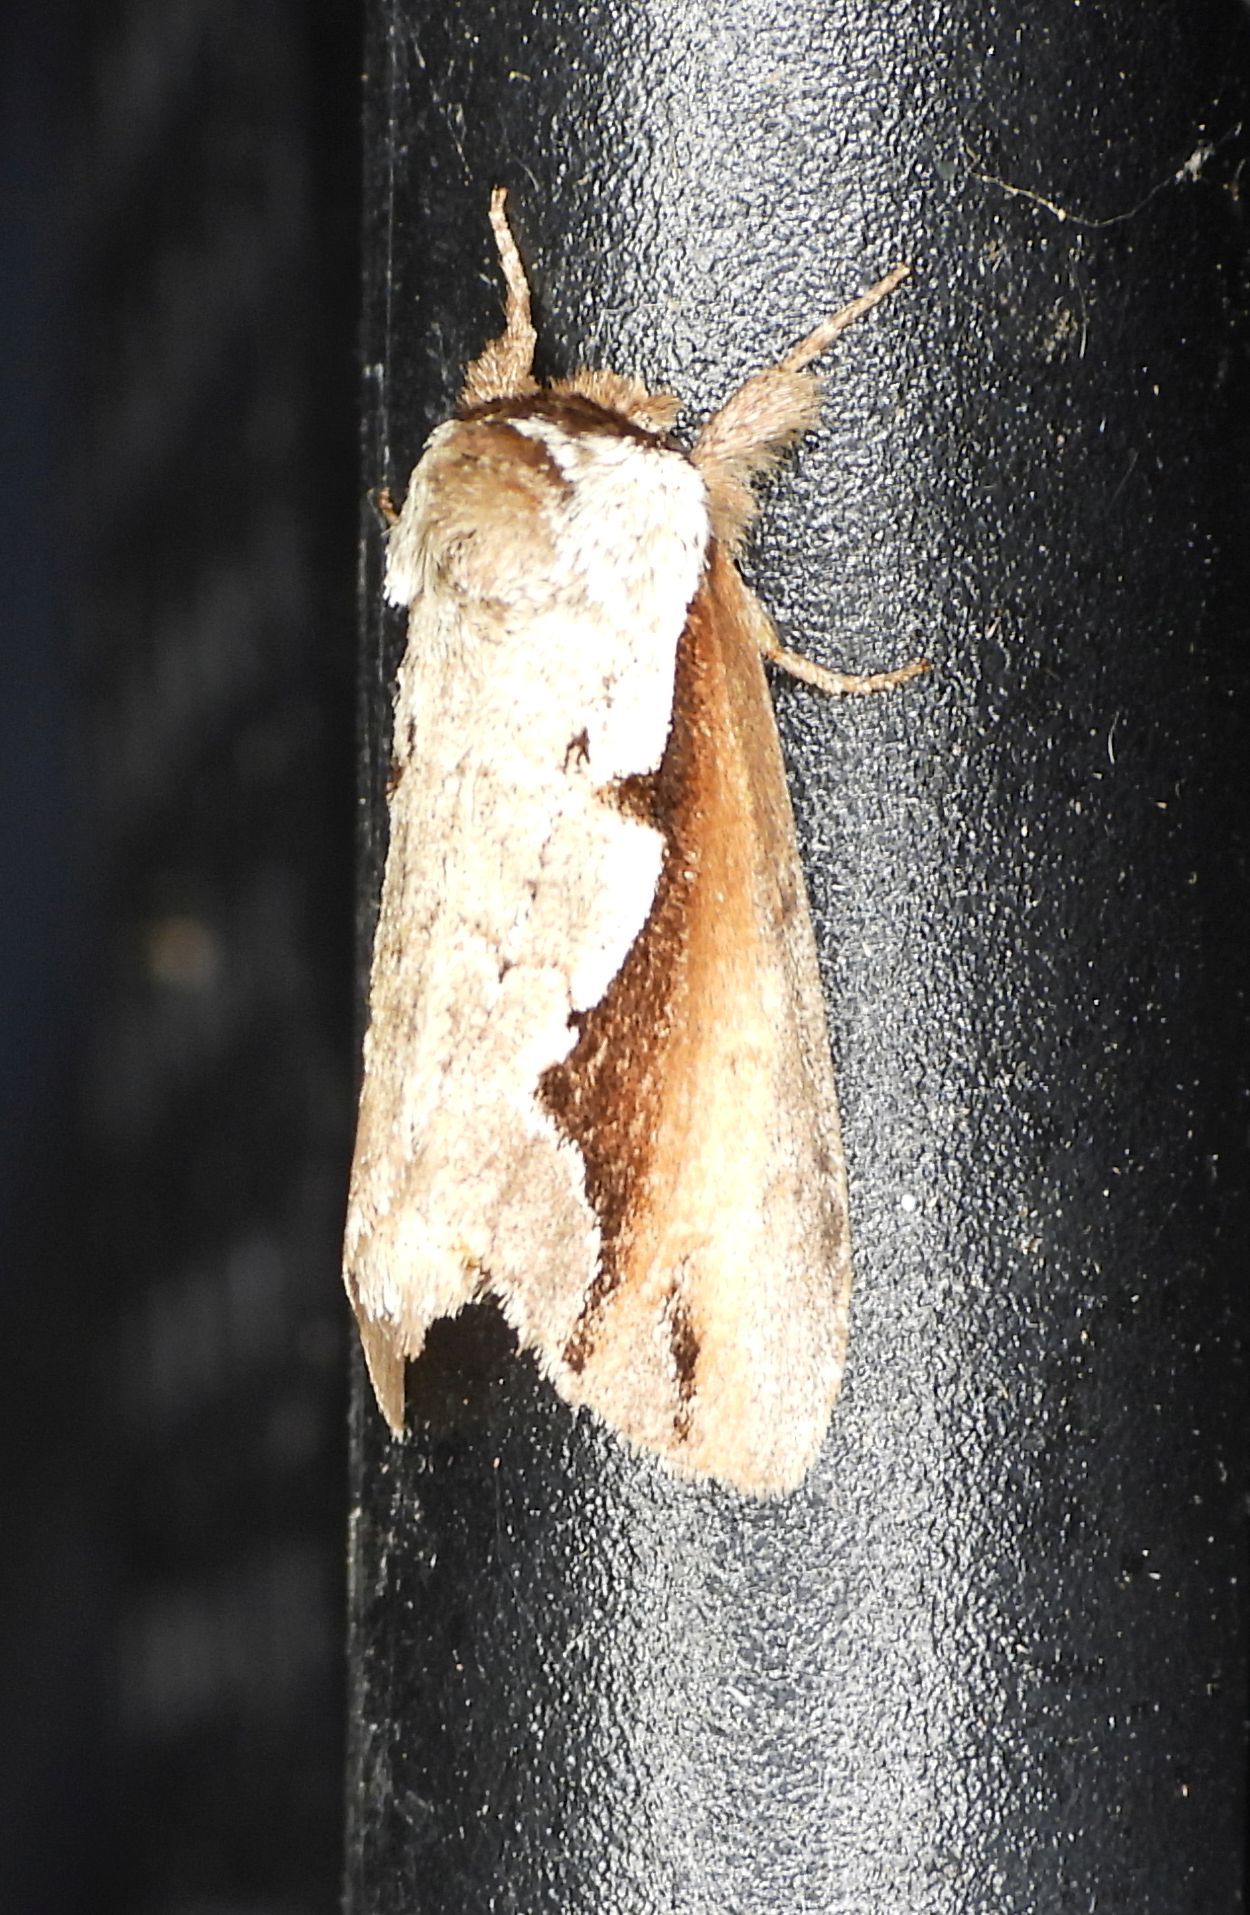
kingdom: Animalia
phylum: Arthropoda
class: Insecta
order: Lepidoptera
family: Notodontidae
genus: Nerice
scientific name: Nerice bidentata
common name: Double-toothed prominent
